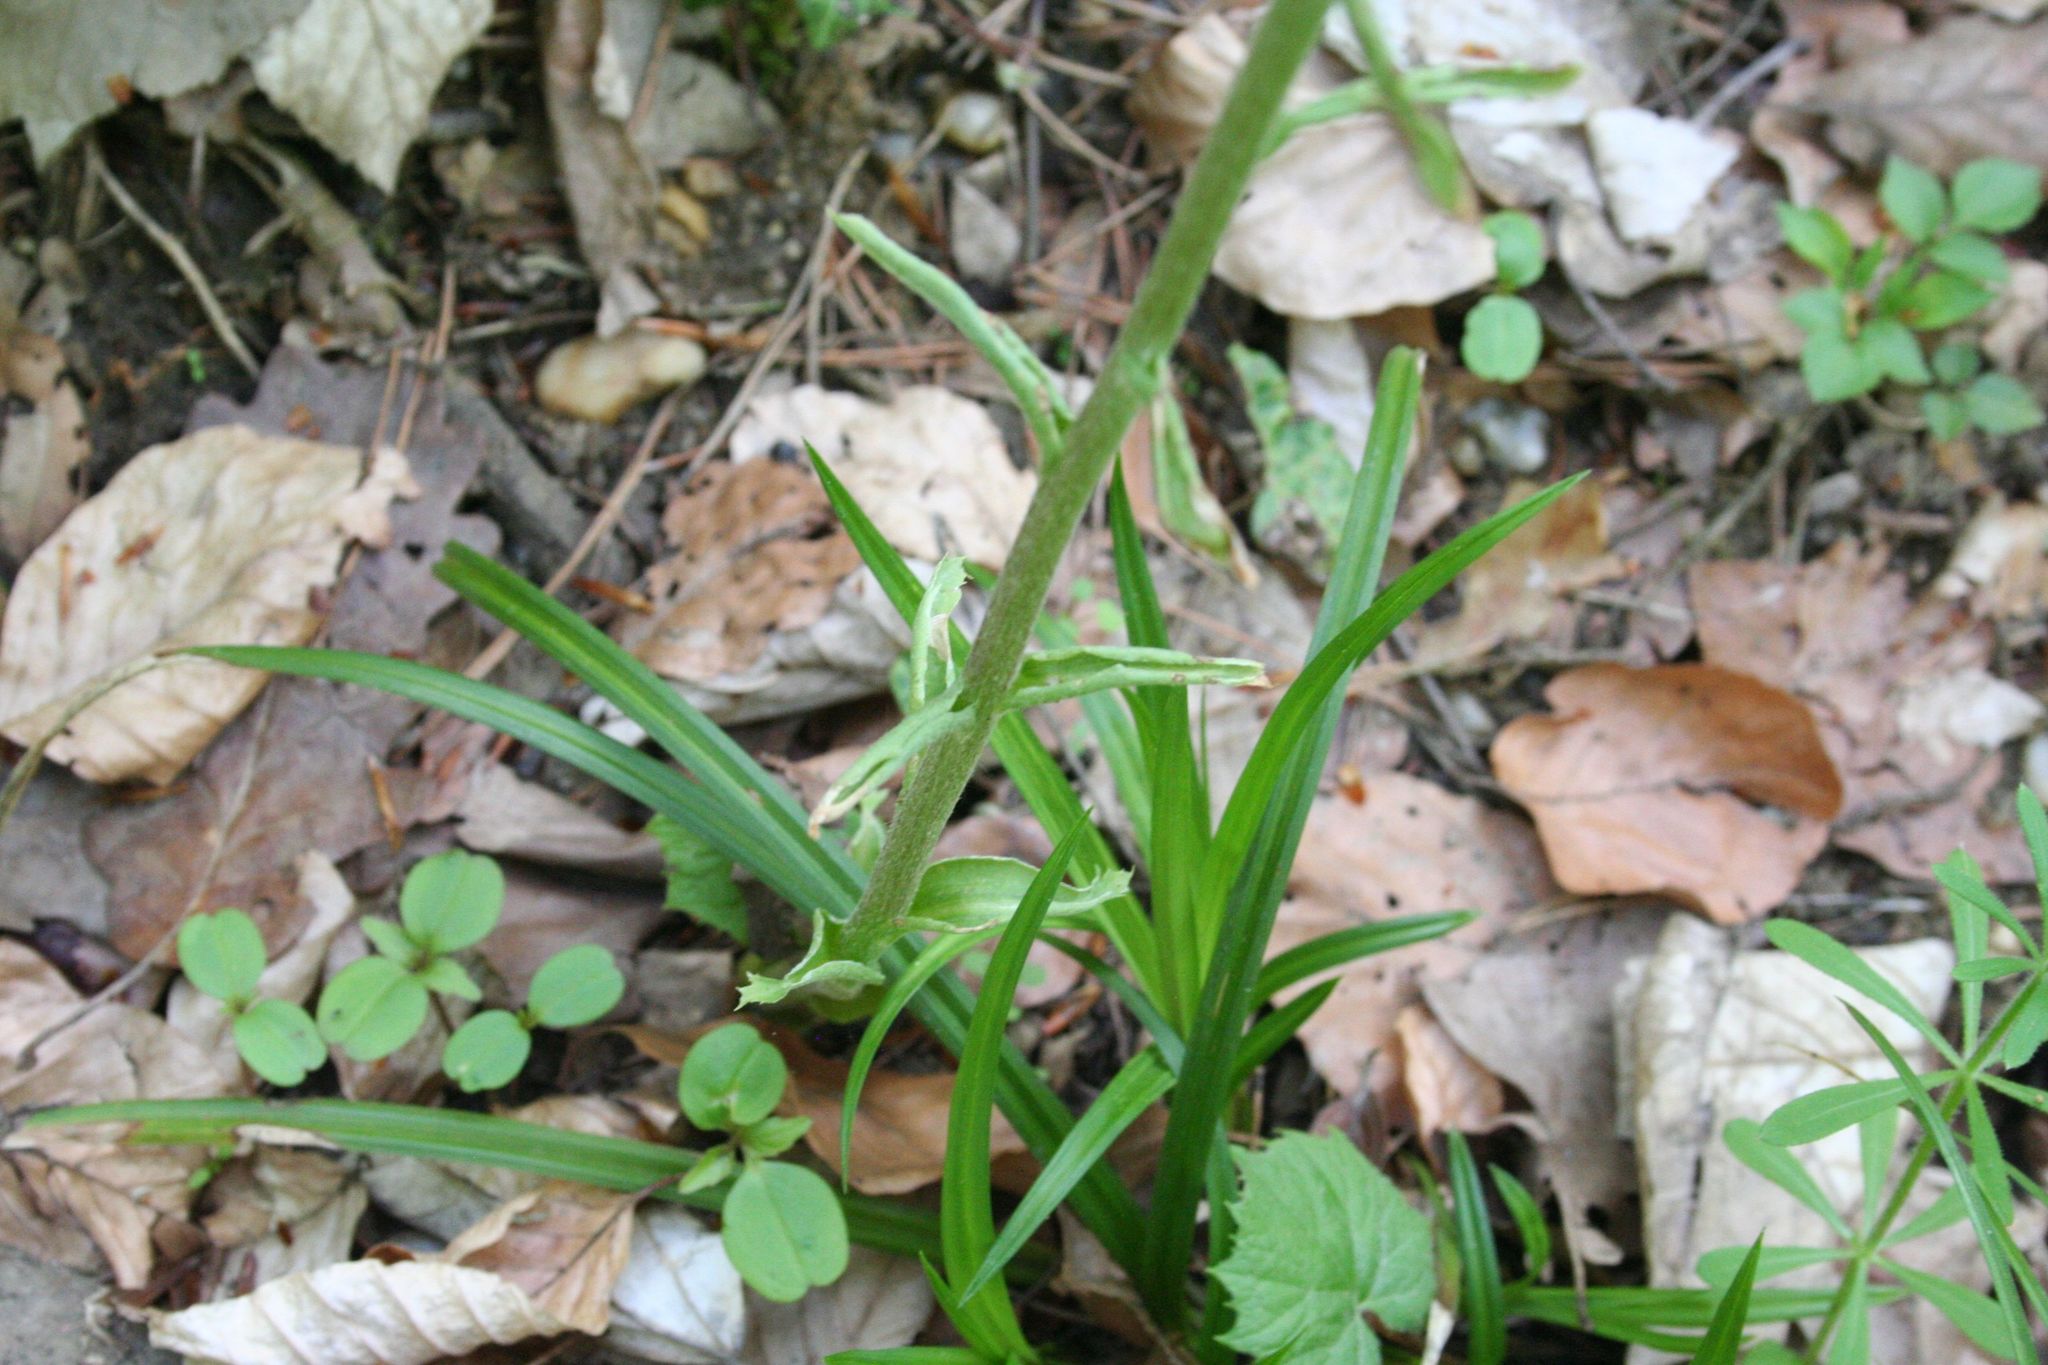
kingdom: Plantae
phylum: Tracheophyta
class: Magnoliopsida
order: Asterales
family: Asteraceae
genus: Petasites
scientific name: Petasites albus
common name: White butterbur
